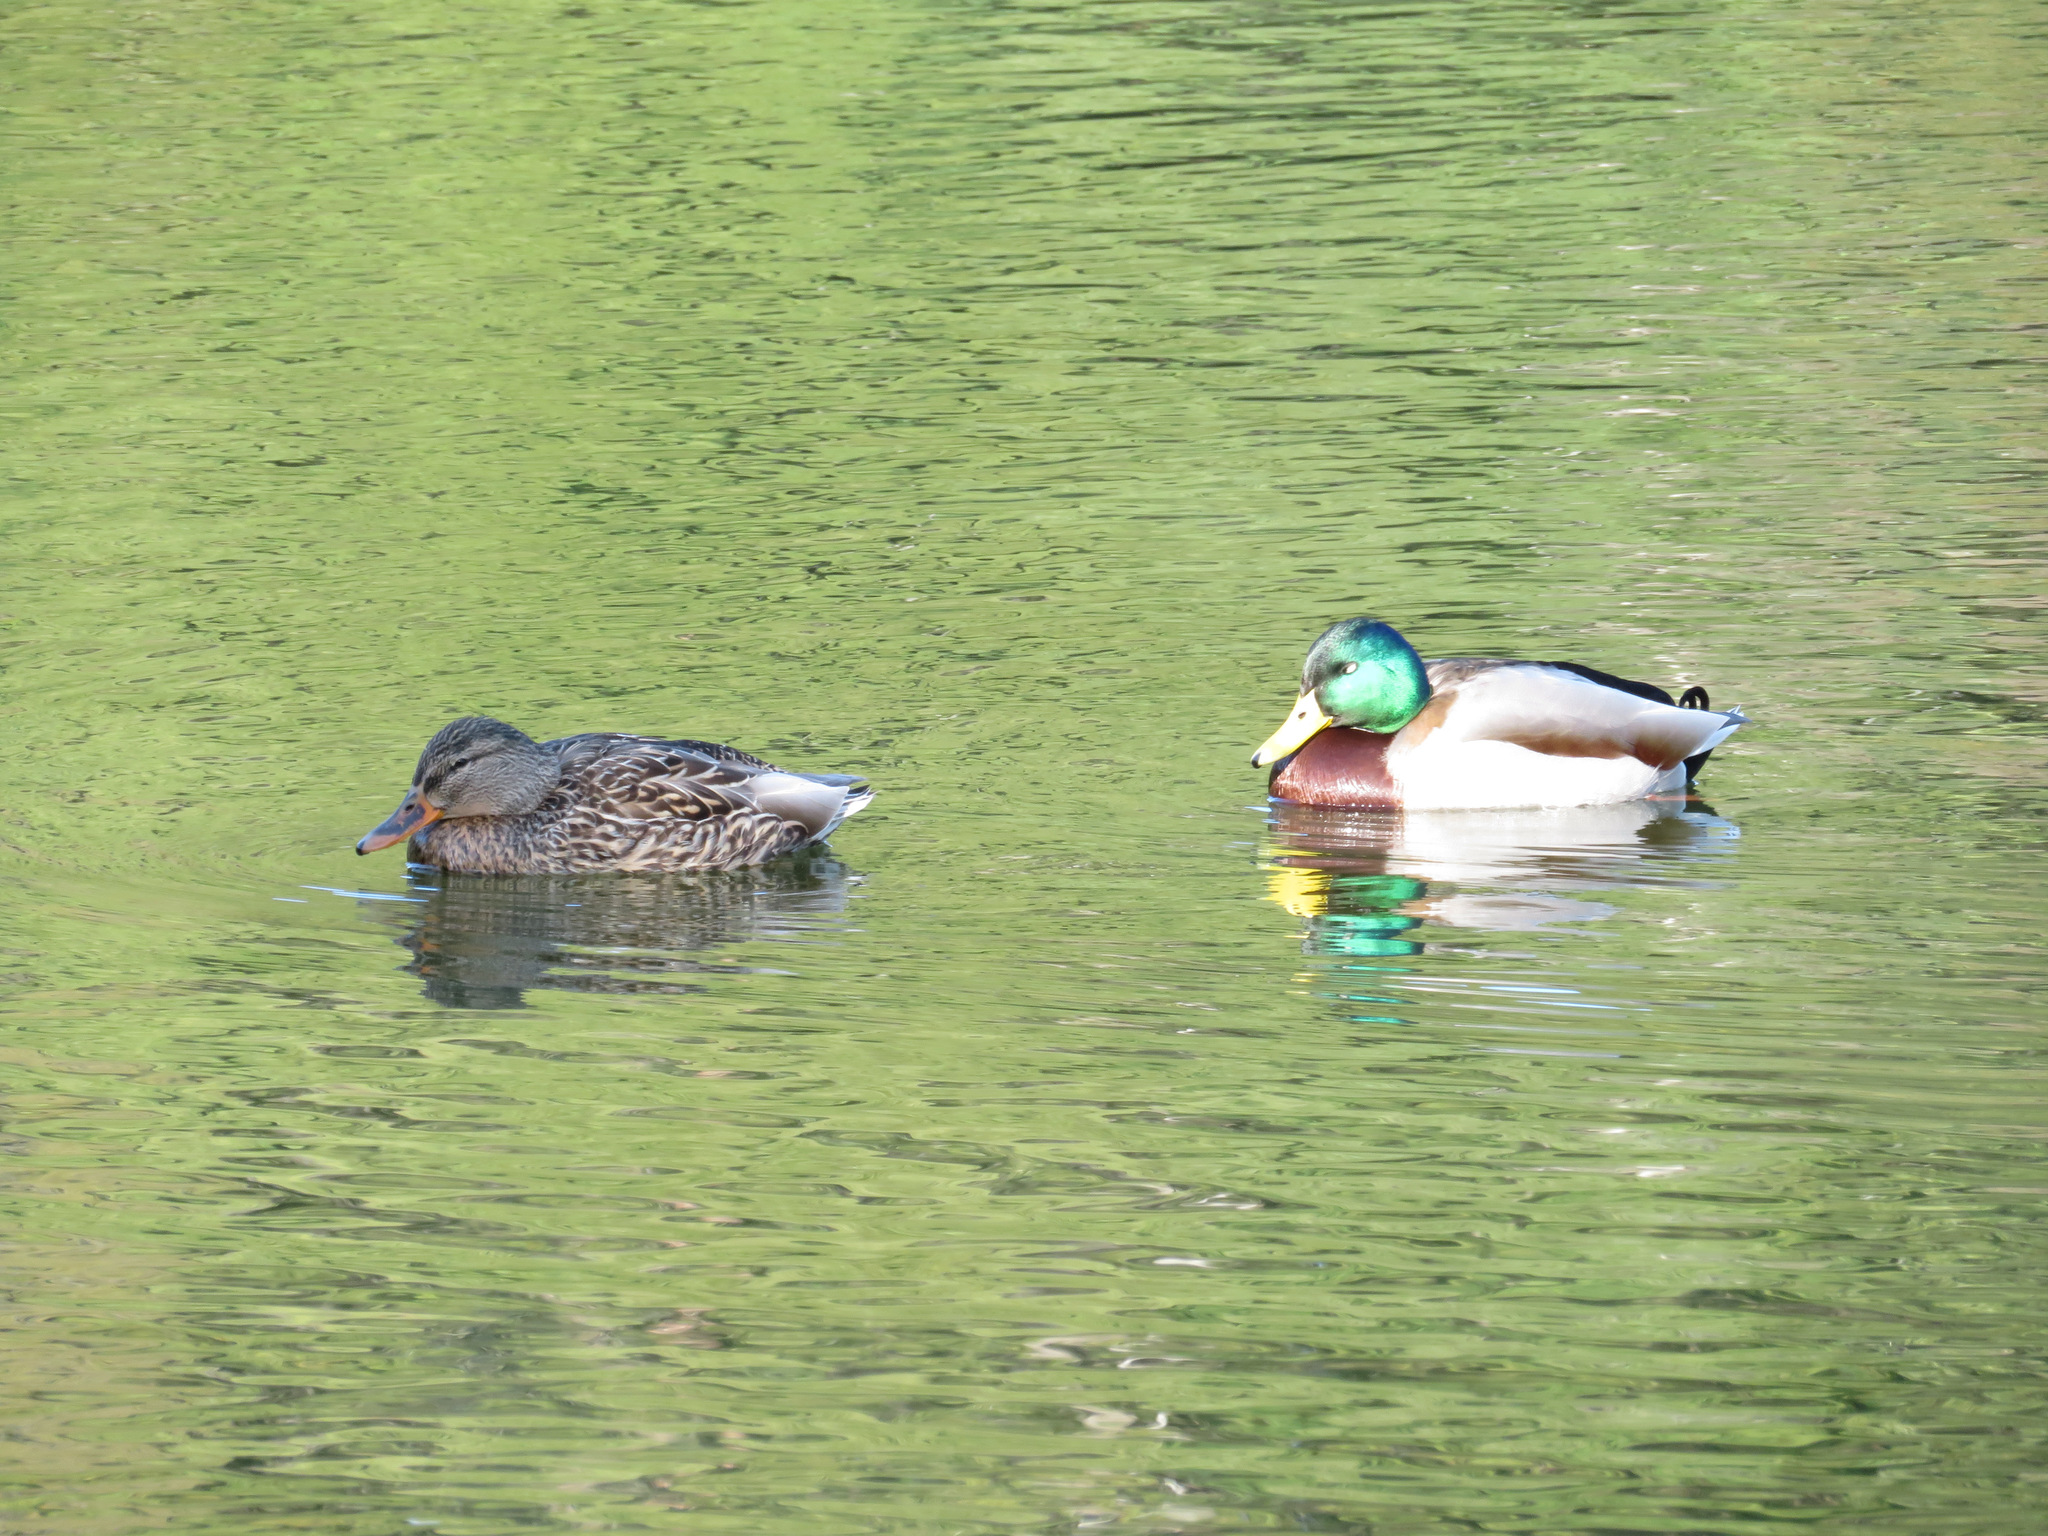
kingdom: Animalia
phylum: Chordata
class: Aves
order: Anseriformes
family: Anatidae
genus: Anas
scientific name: Anas platyrhynchos
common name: Mallard
